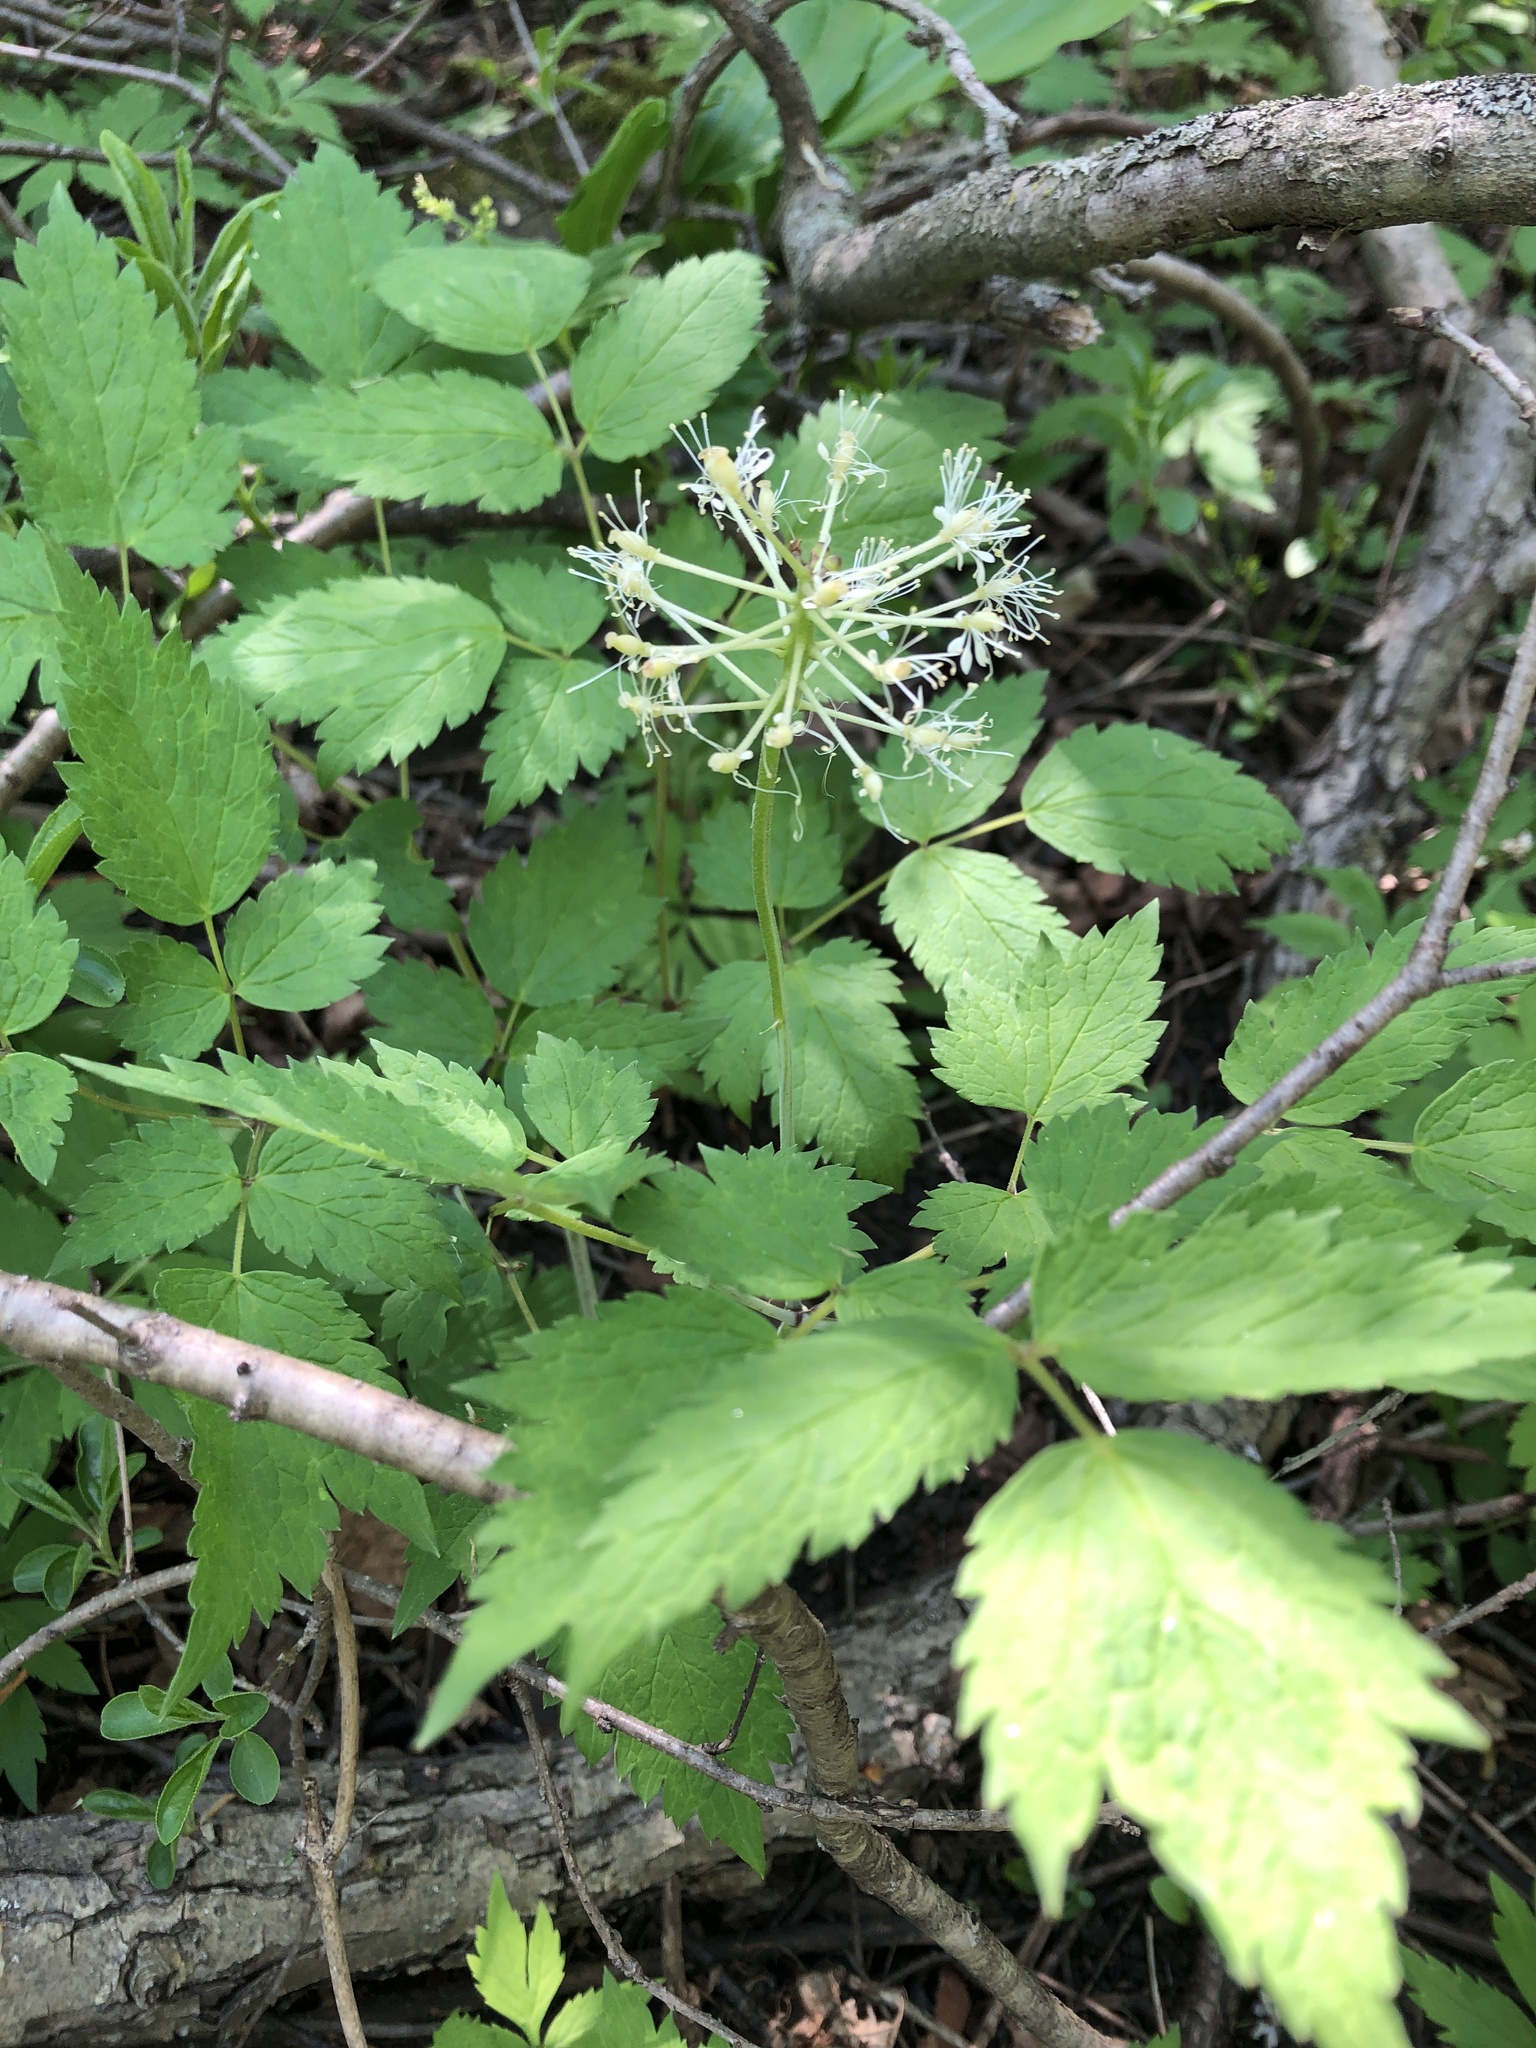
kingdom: Plantae
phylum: Tracheophyta
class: Magnoliopsida
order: Ranunculales
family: Ranunculaceae
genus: Actaea
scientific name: Actaea rubra
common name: Red baneberry
